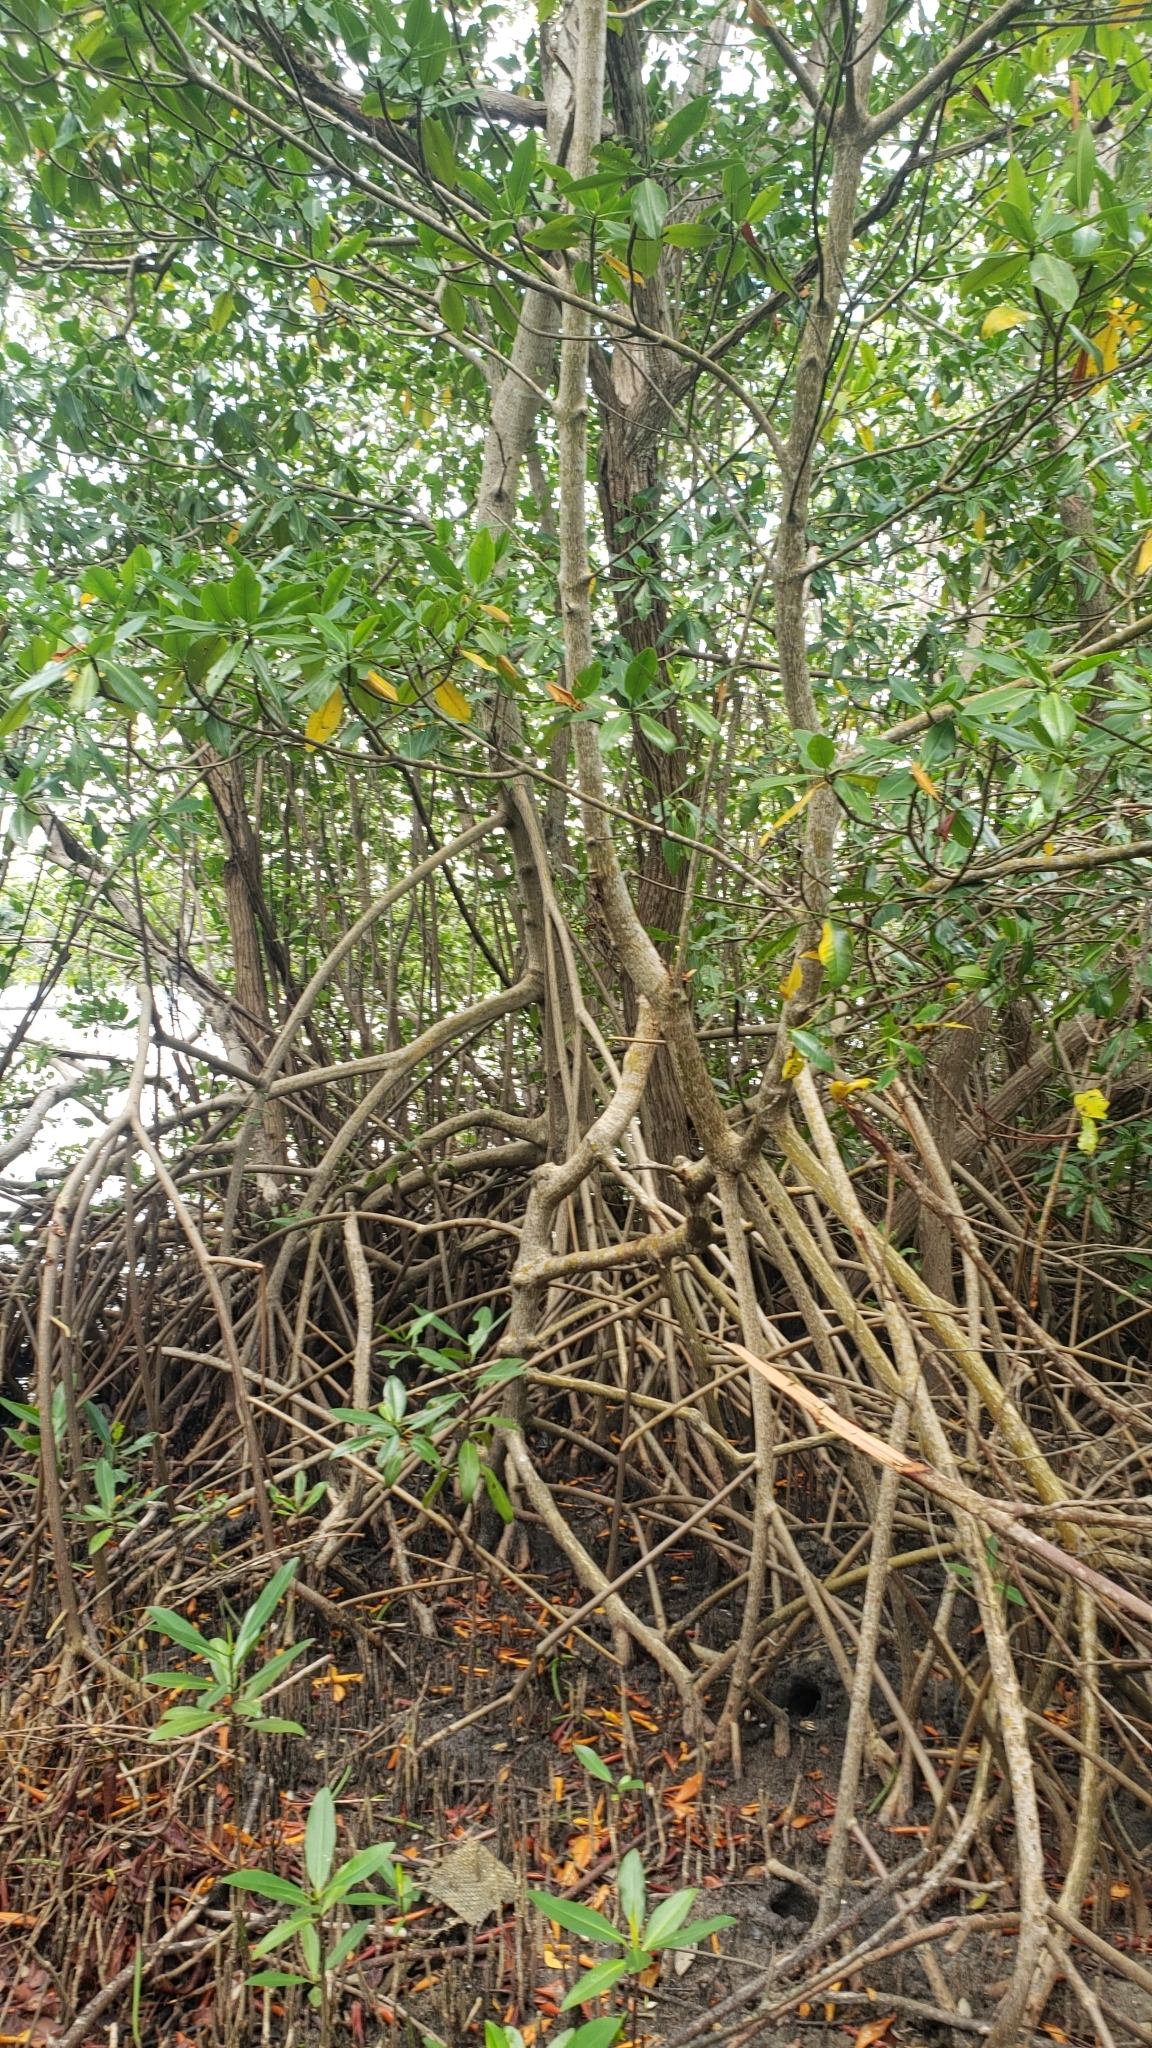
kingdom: Plantae
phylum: Tracheophyta
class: Magnoliopsida
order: Malpighiales
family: Rhizophoraceae
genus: Rhizophora
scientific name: Rhizophora mangle
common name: Red mangrove
